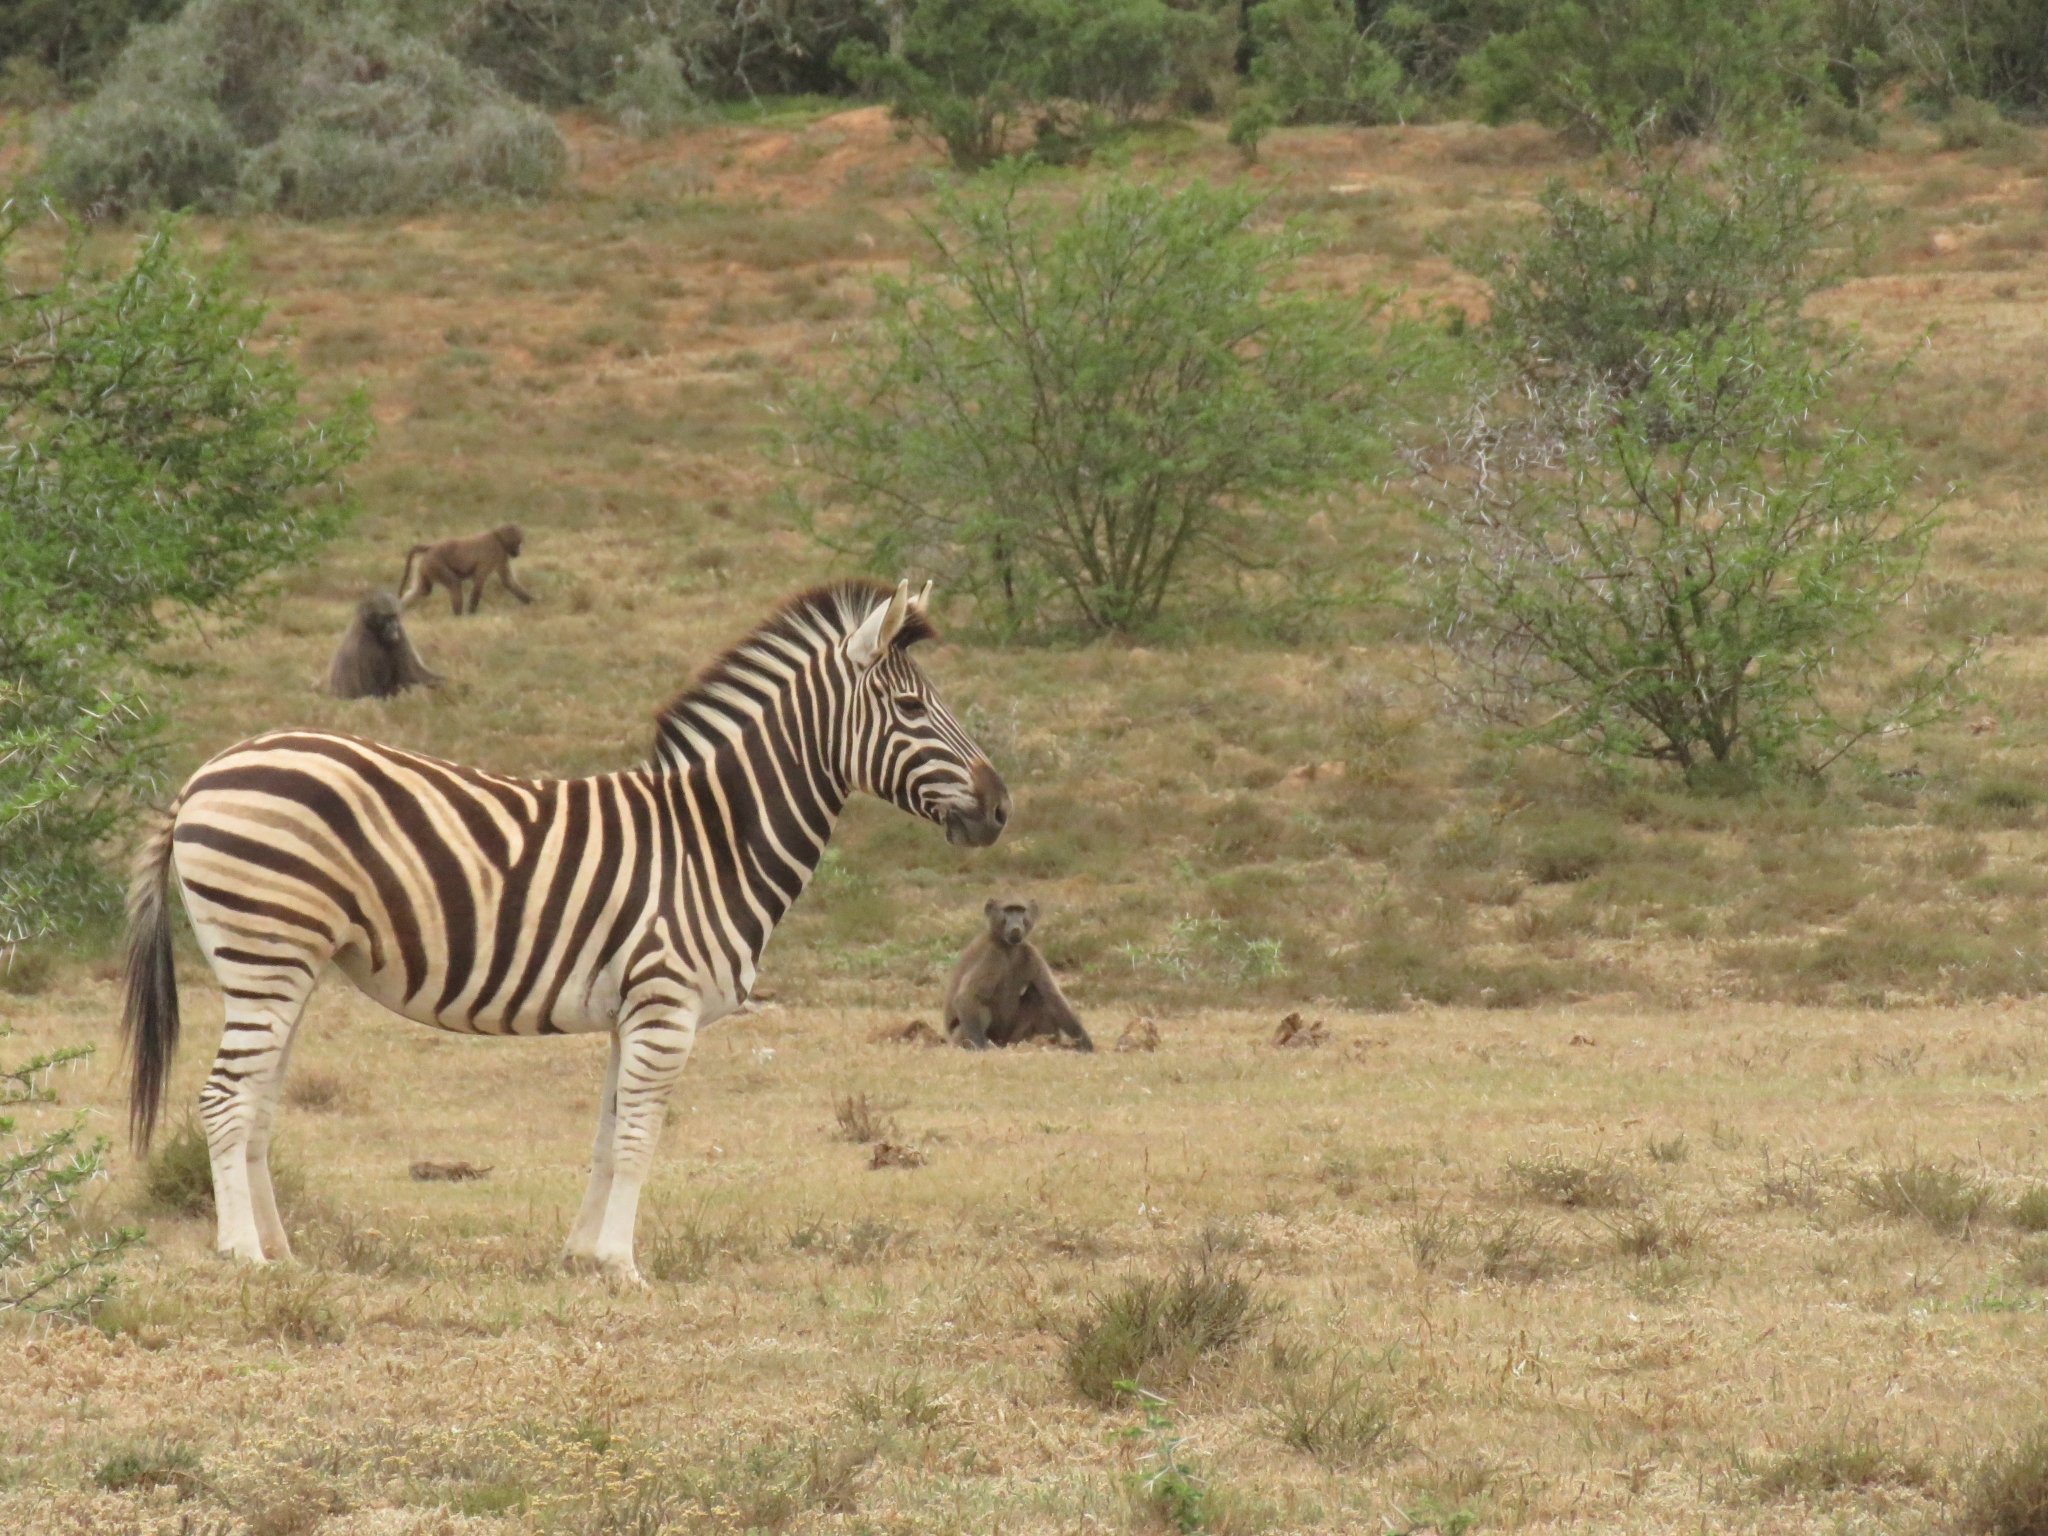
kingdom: Animalia
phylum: Chordata
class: Mammalia
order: Primates
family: Cercopithecidae
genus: Papio
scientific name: Papio ursinus
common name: Chacma baboon
